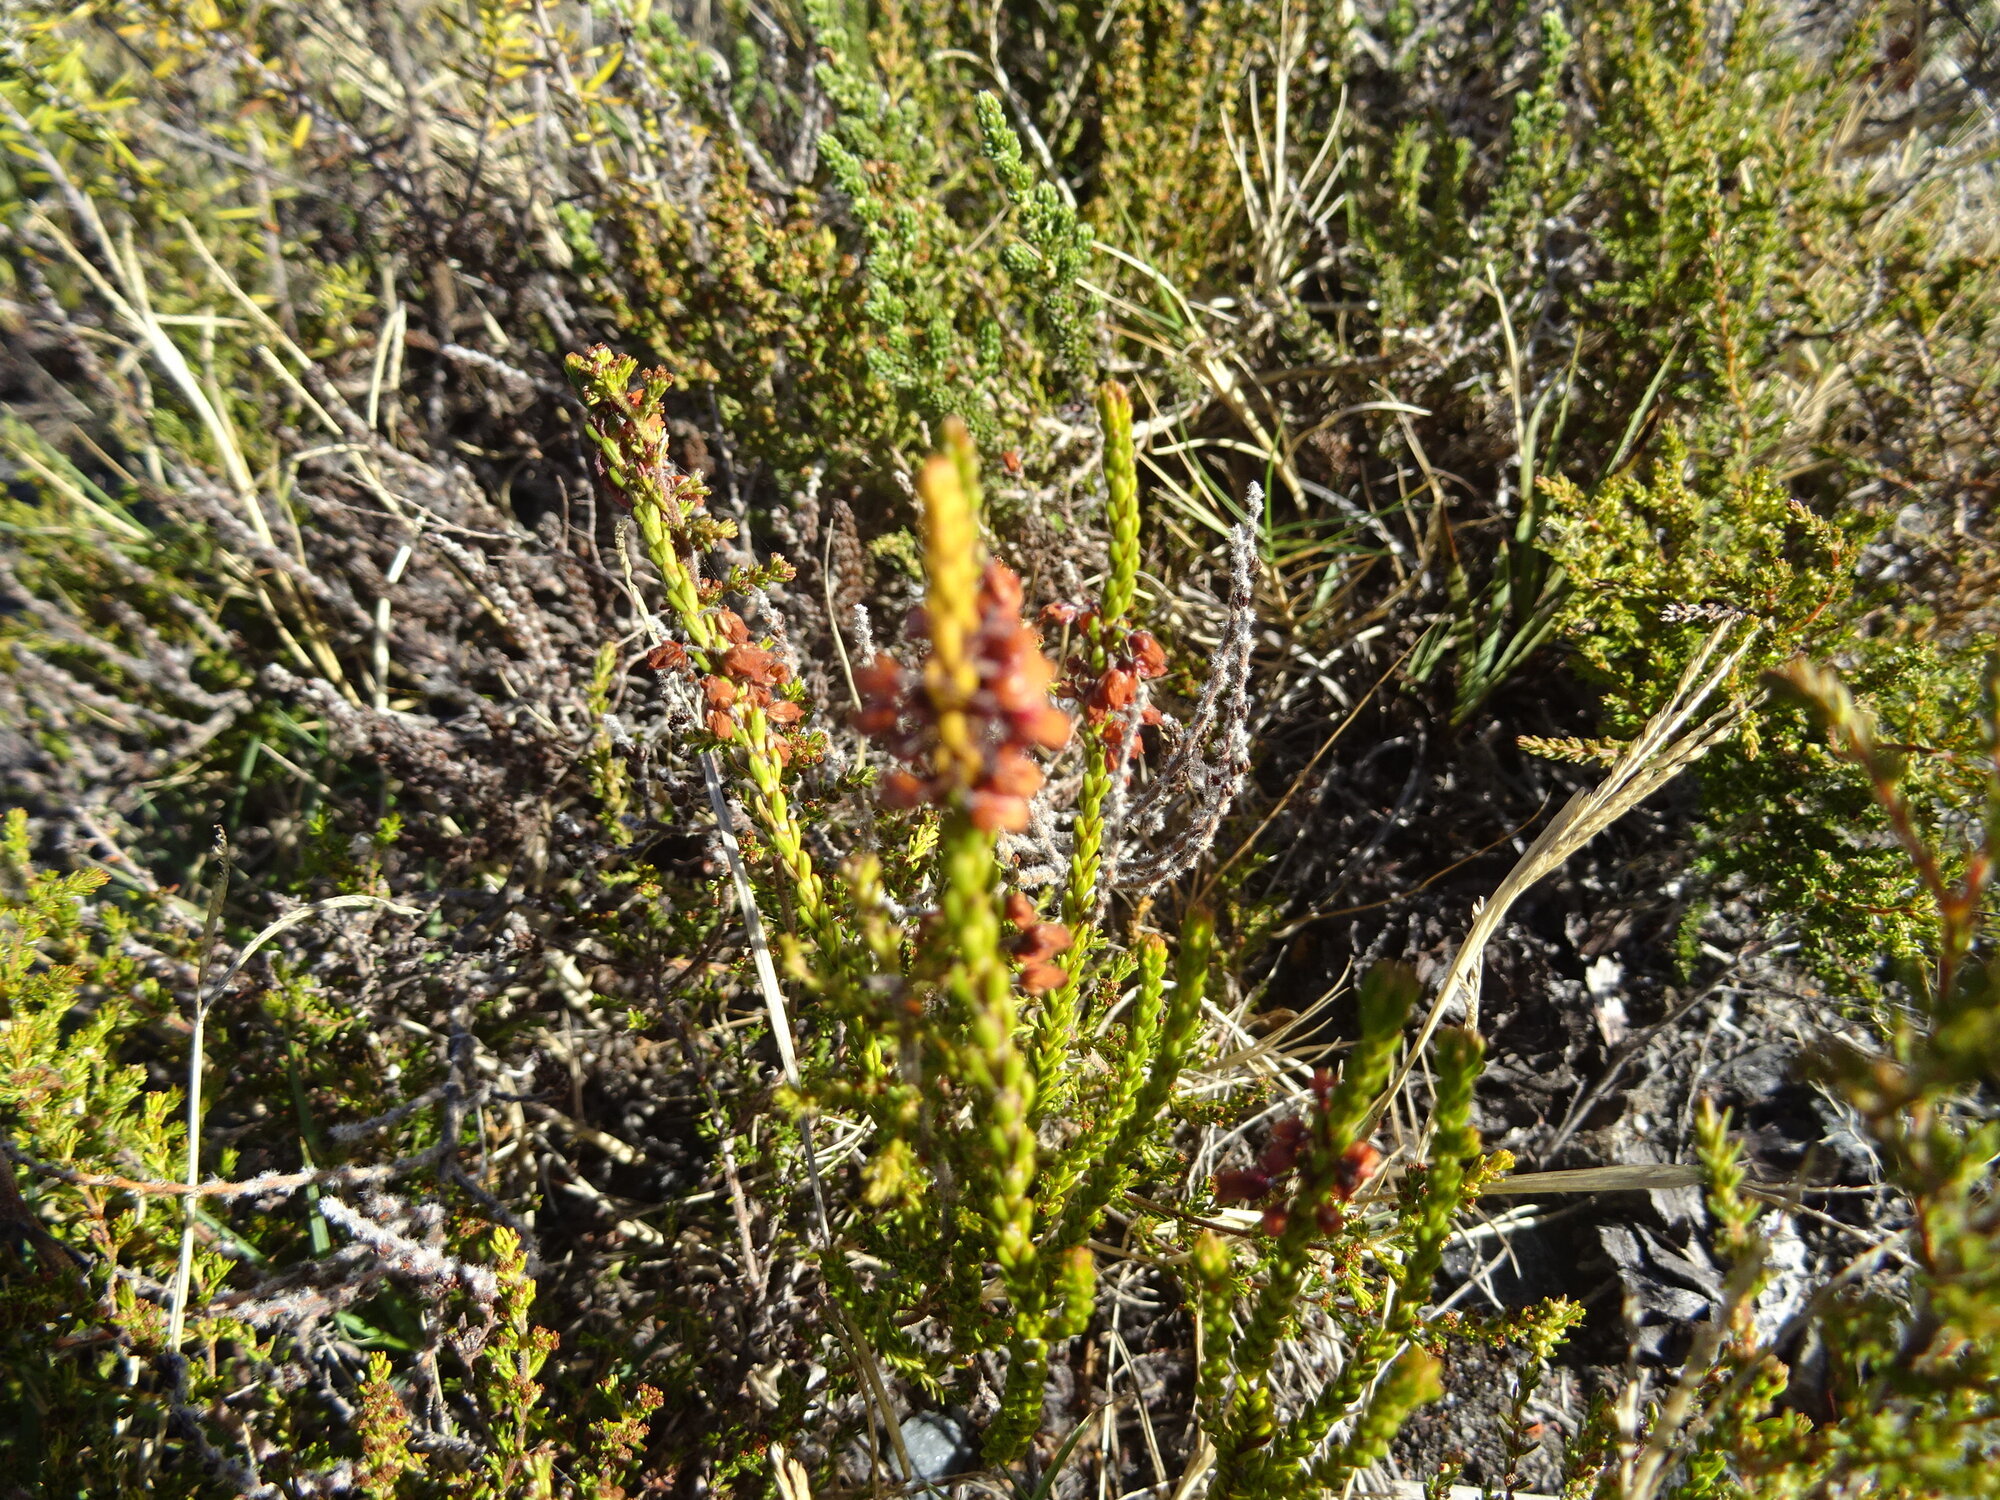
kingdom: Plantae
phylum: Tracheophyta
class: Magnoliopsida
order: Ericales
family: Ericaceae
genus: Erica
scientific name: Erica pulchella
